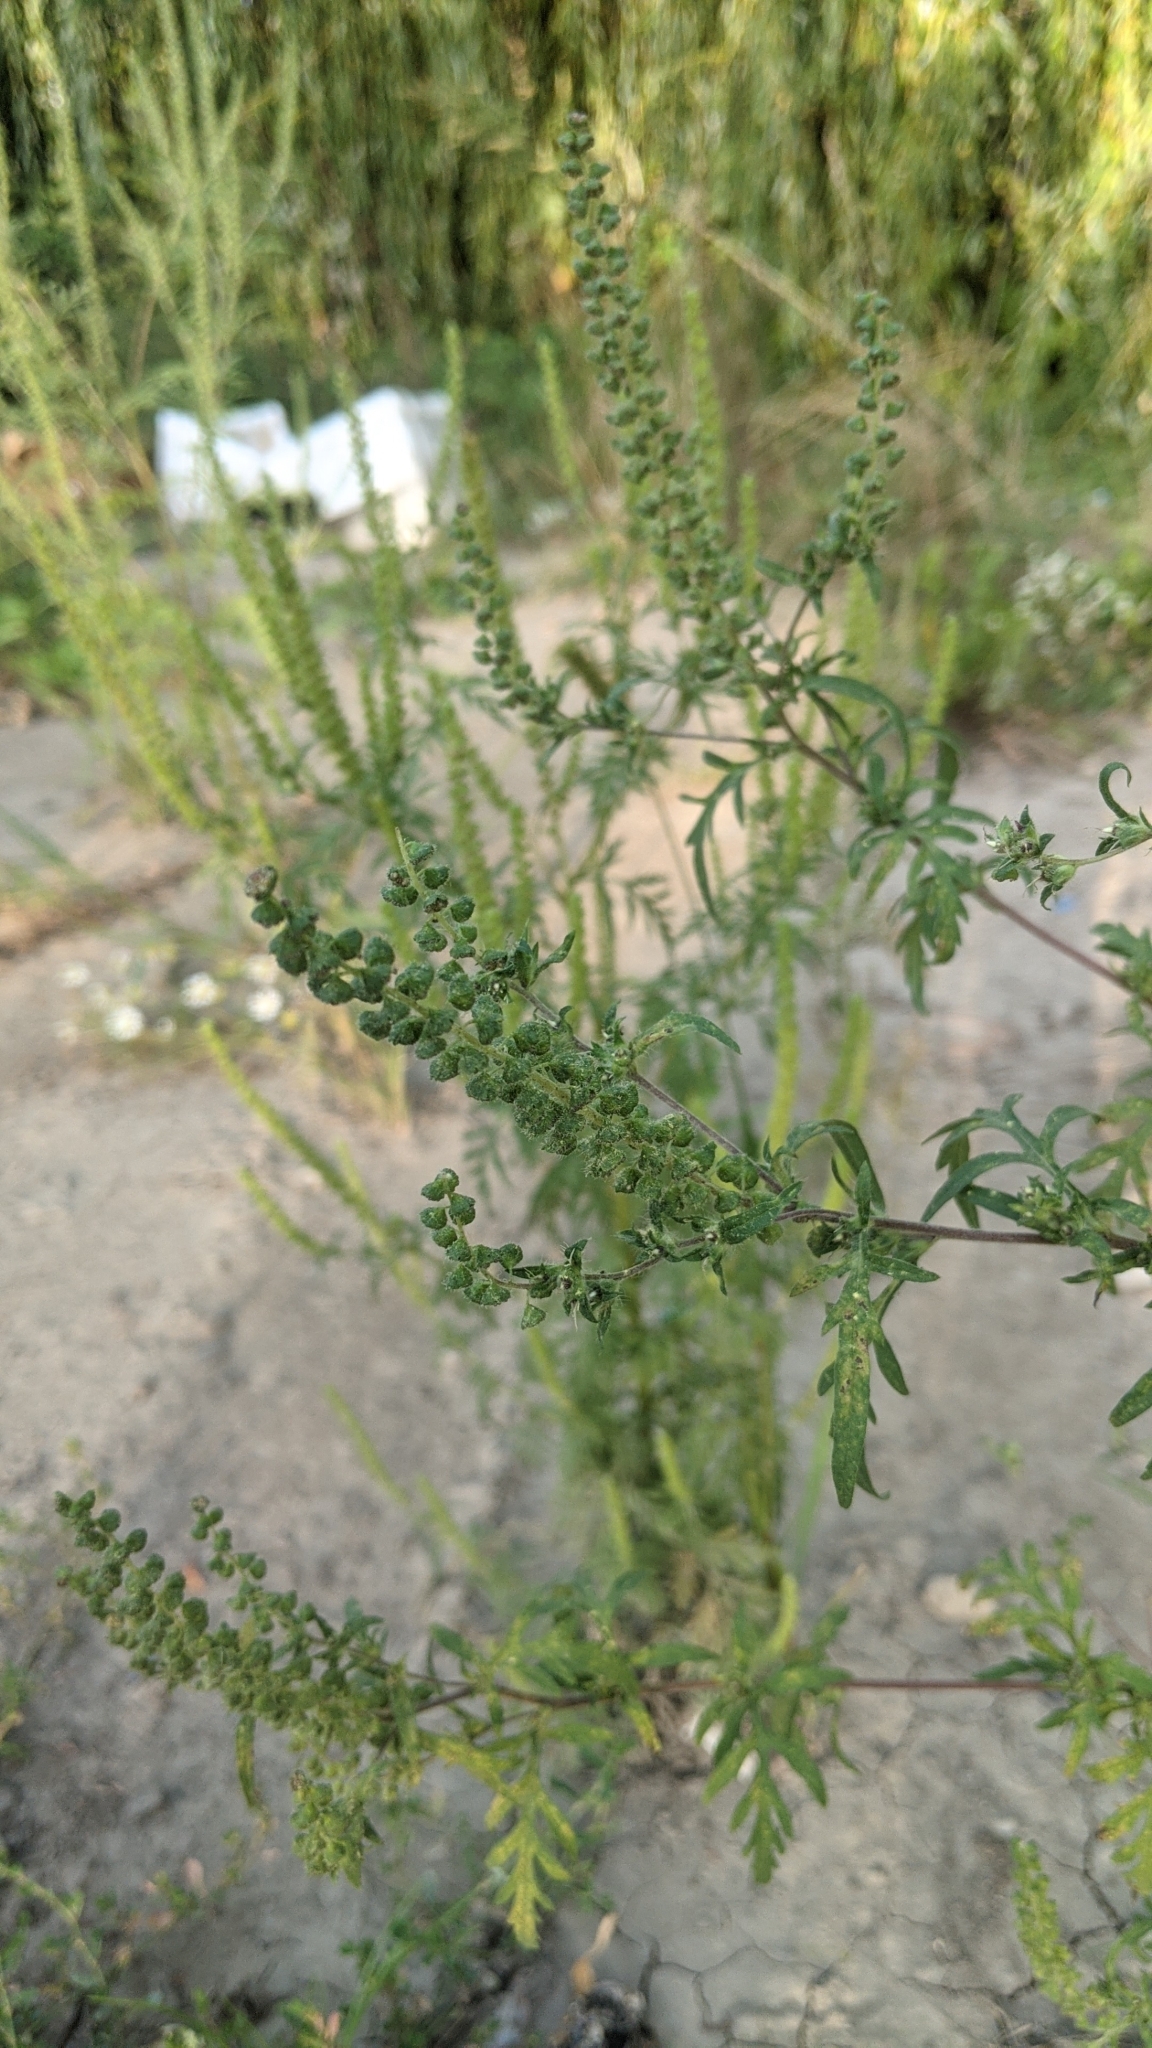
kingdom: Plantae
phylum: Tracheophyta
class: Magnoliopsida
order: Asterales
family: Asteraceae
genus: Ambrosia
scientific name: Ambrosia artemisiifolia
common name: Annual ragweed
